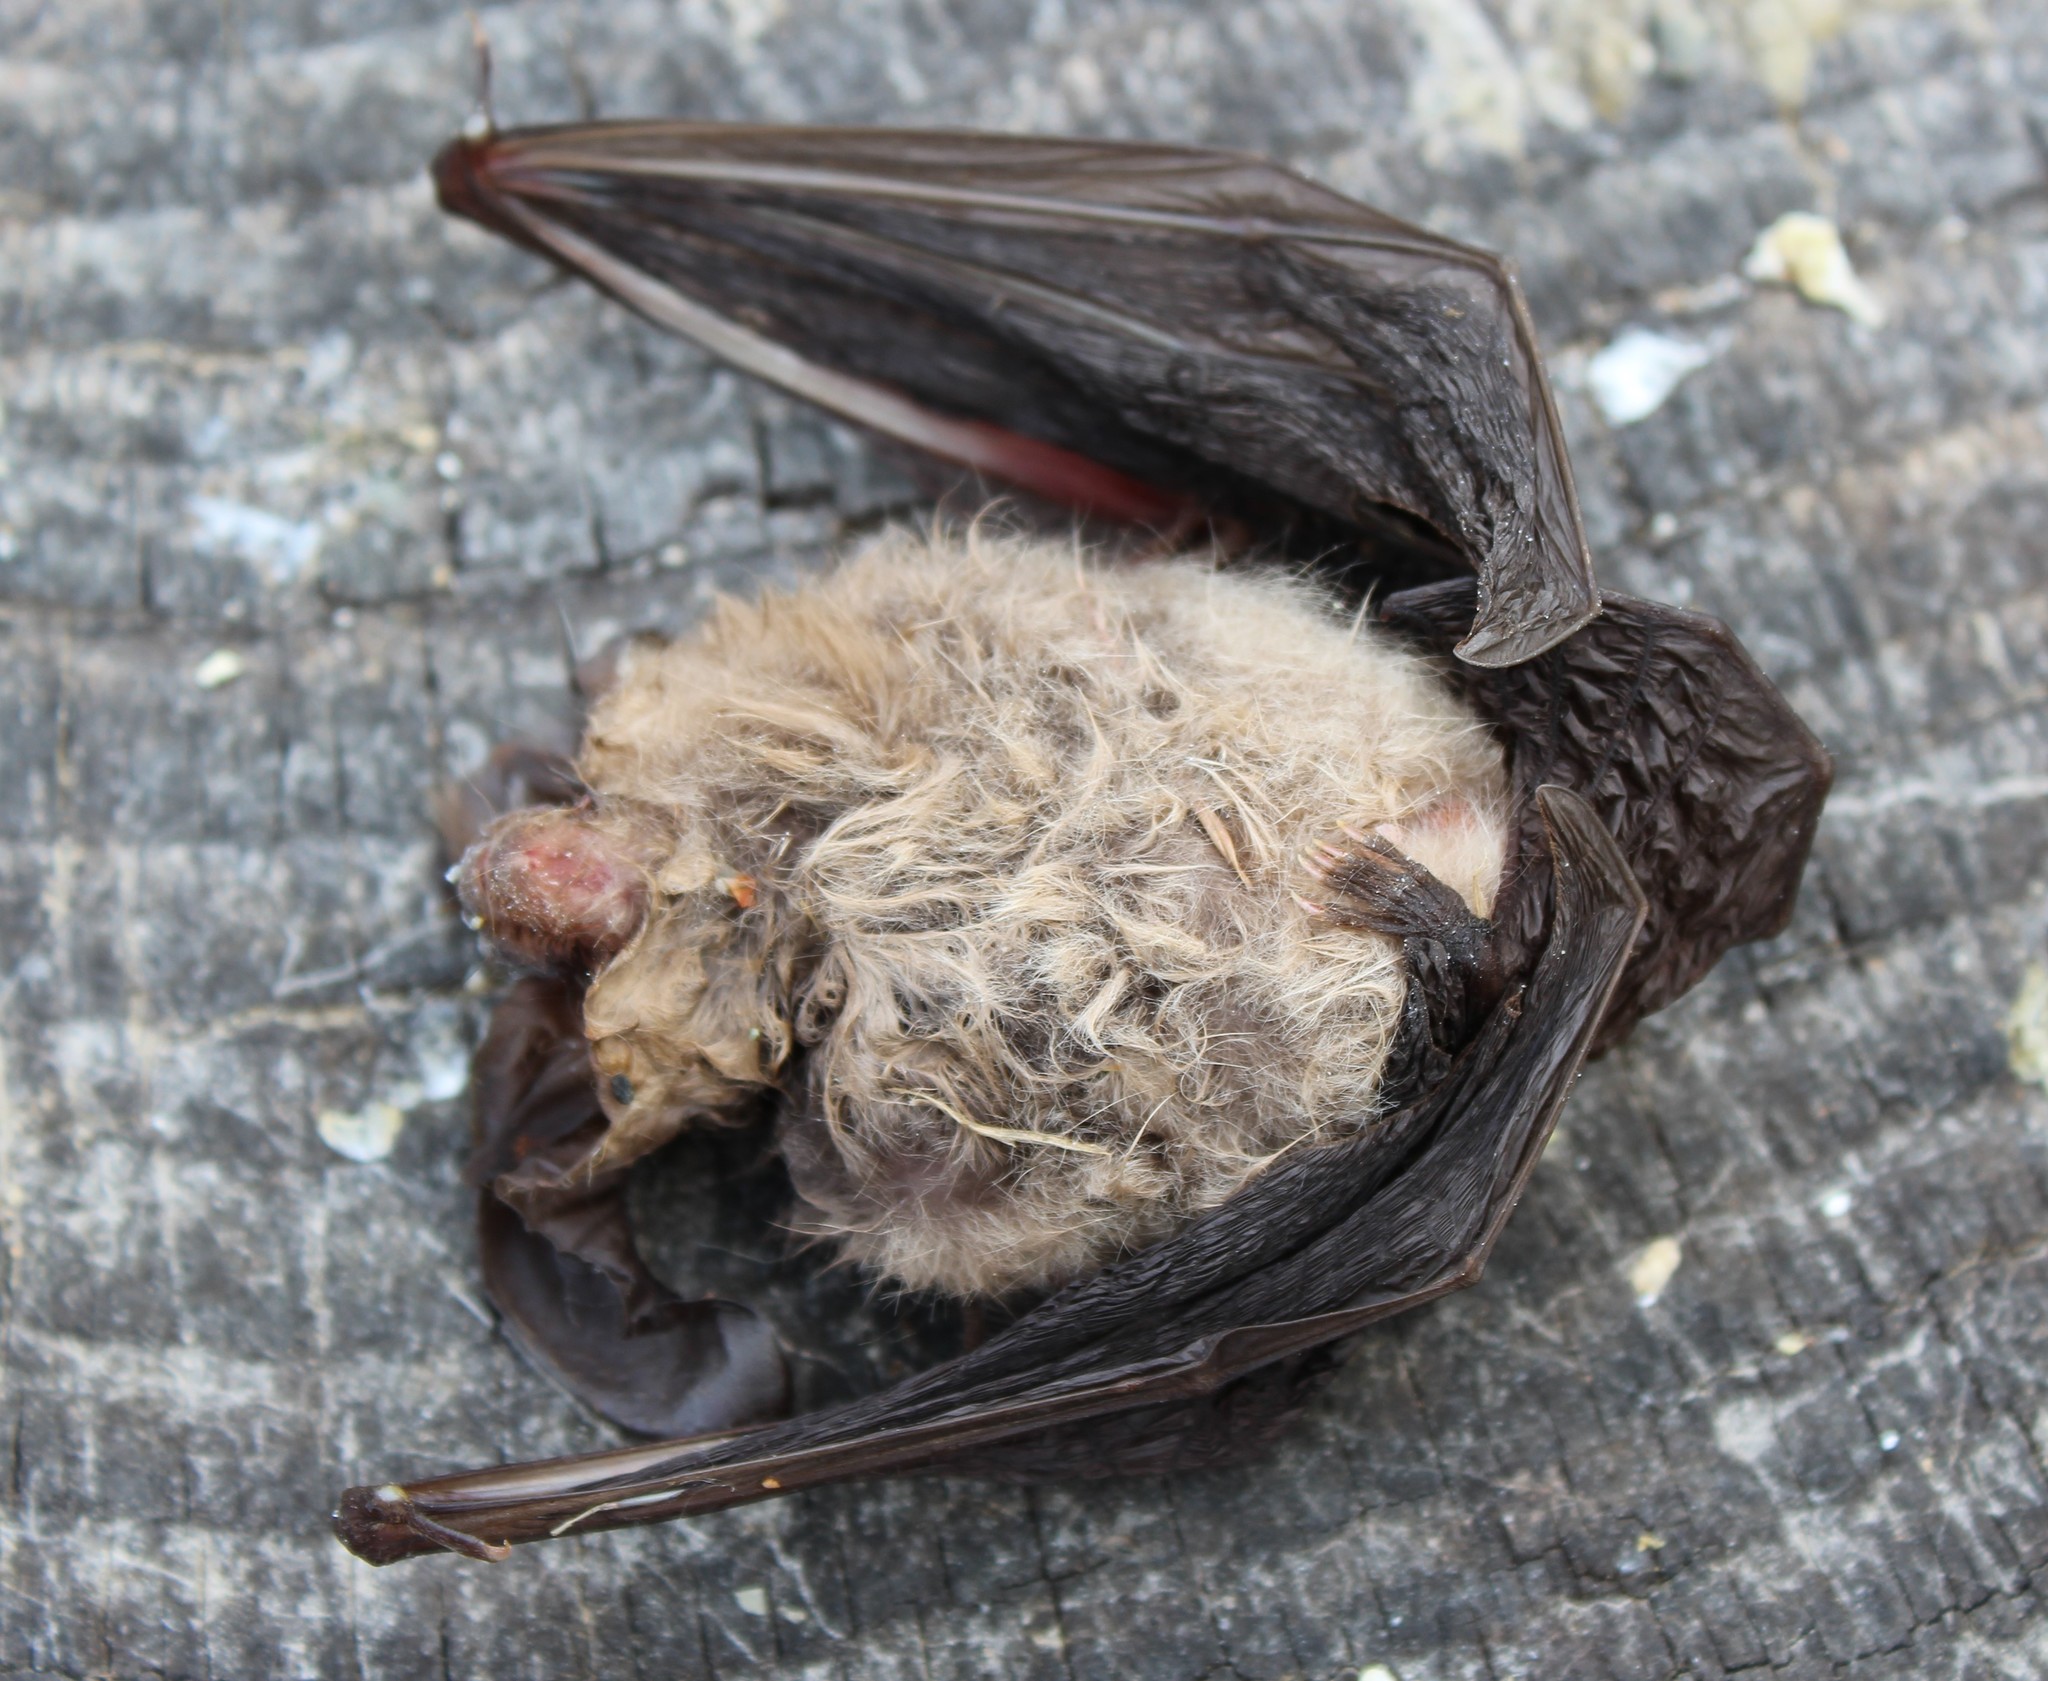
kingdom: Animalia
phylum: Chordata
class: Mammalia
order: Chiroptera
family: Vespertilionidae
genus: Corynorhinus
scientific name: Corynorhinus townsendii
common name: Townsend's big-eared bat
